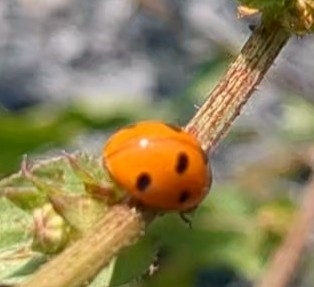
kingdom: Animalia
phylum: Arthropoda
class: Insecta
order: Coleoptera
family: Coccinellidae
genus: Coccinella
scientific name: Coccinella septempunctata
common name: Sevenspotted lady beetle
